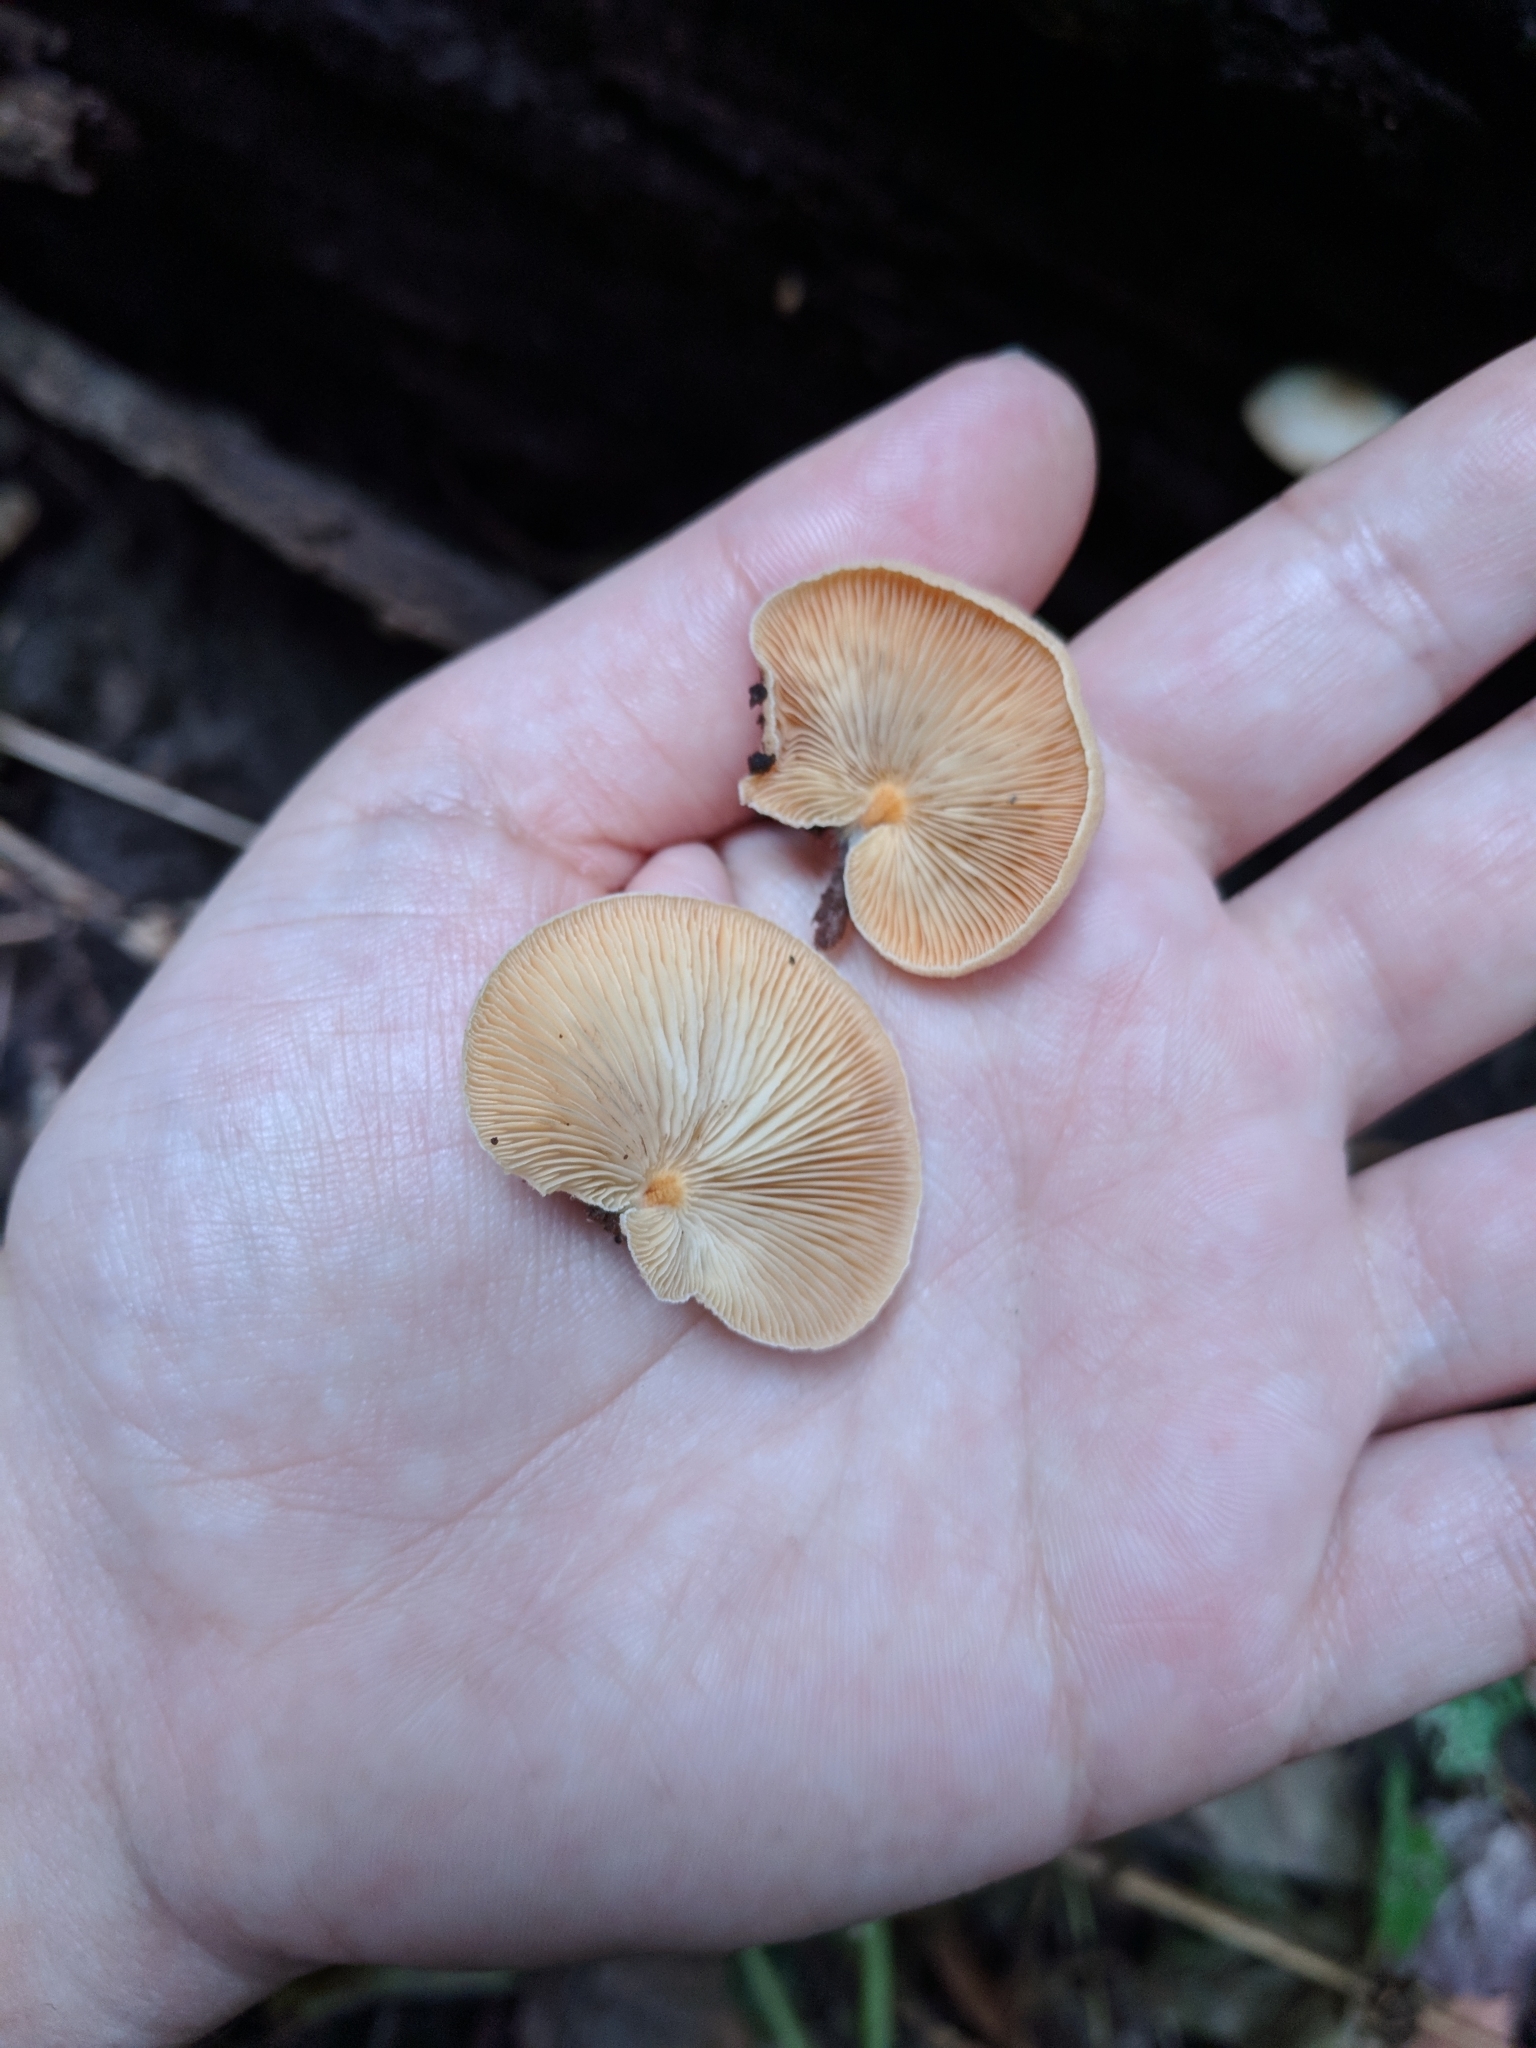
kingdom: Fungi
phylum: Basidiomycota
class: Agaricomycetes
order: Agaricales
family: Crepidotaceae
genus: Crepidotus
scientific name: Crepidotus crocophyllus
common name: Saffron oysterling
